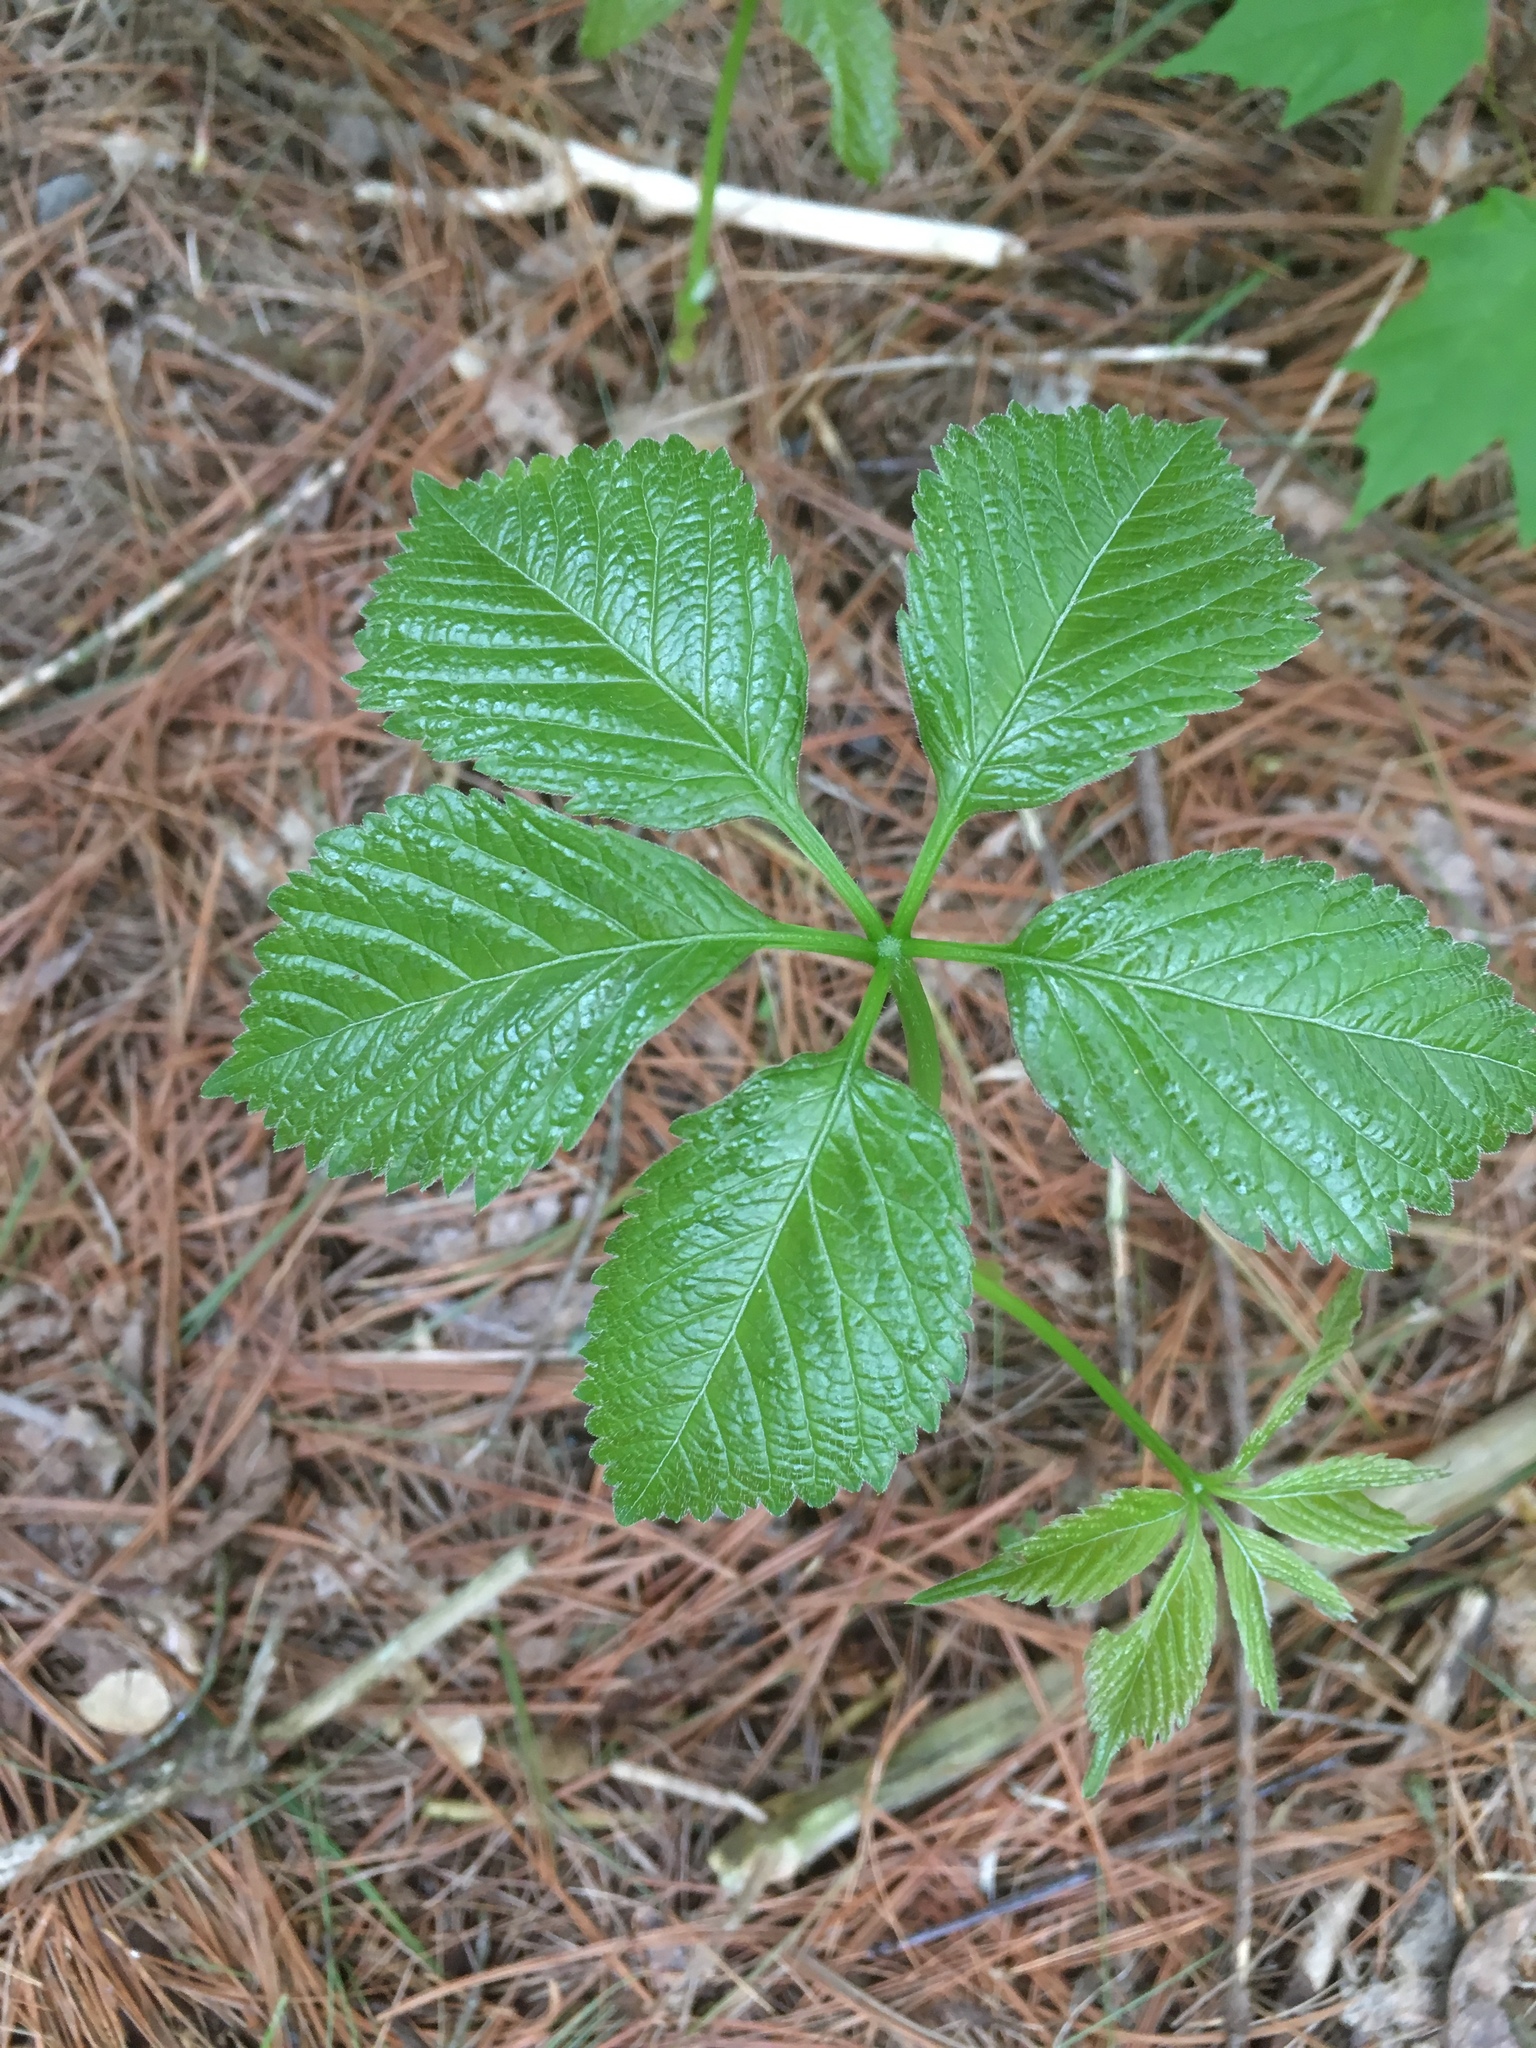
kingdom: Plantae
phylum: Tracheophyta
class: Magnoliopsida
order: Vitales
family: Vitaceae
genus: Parthenocissus
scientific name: Parthenocissus inserta
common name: False virginia-creeper
